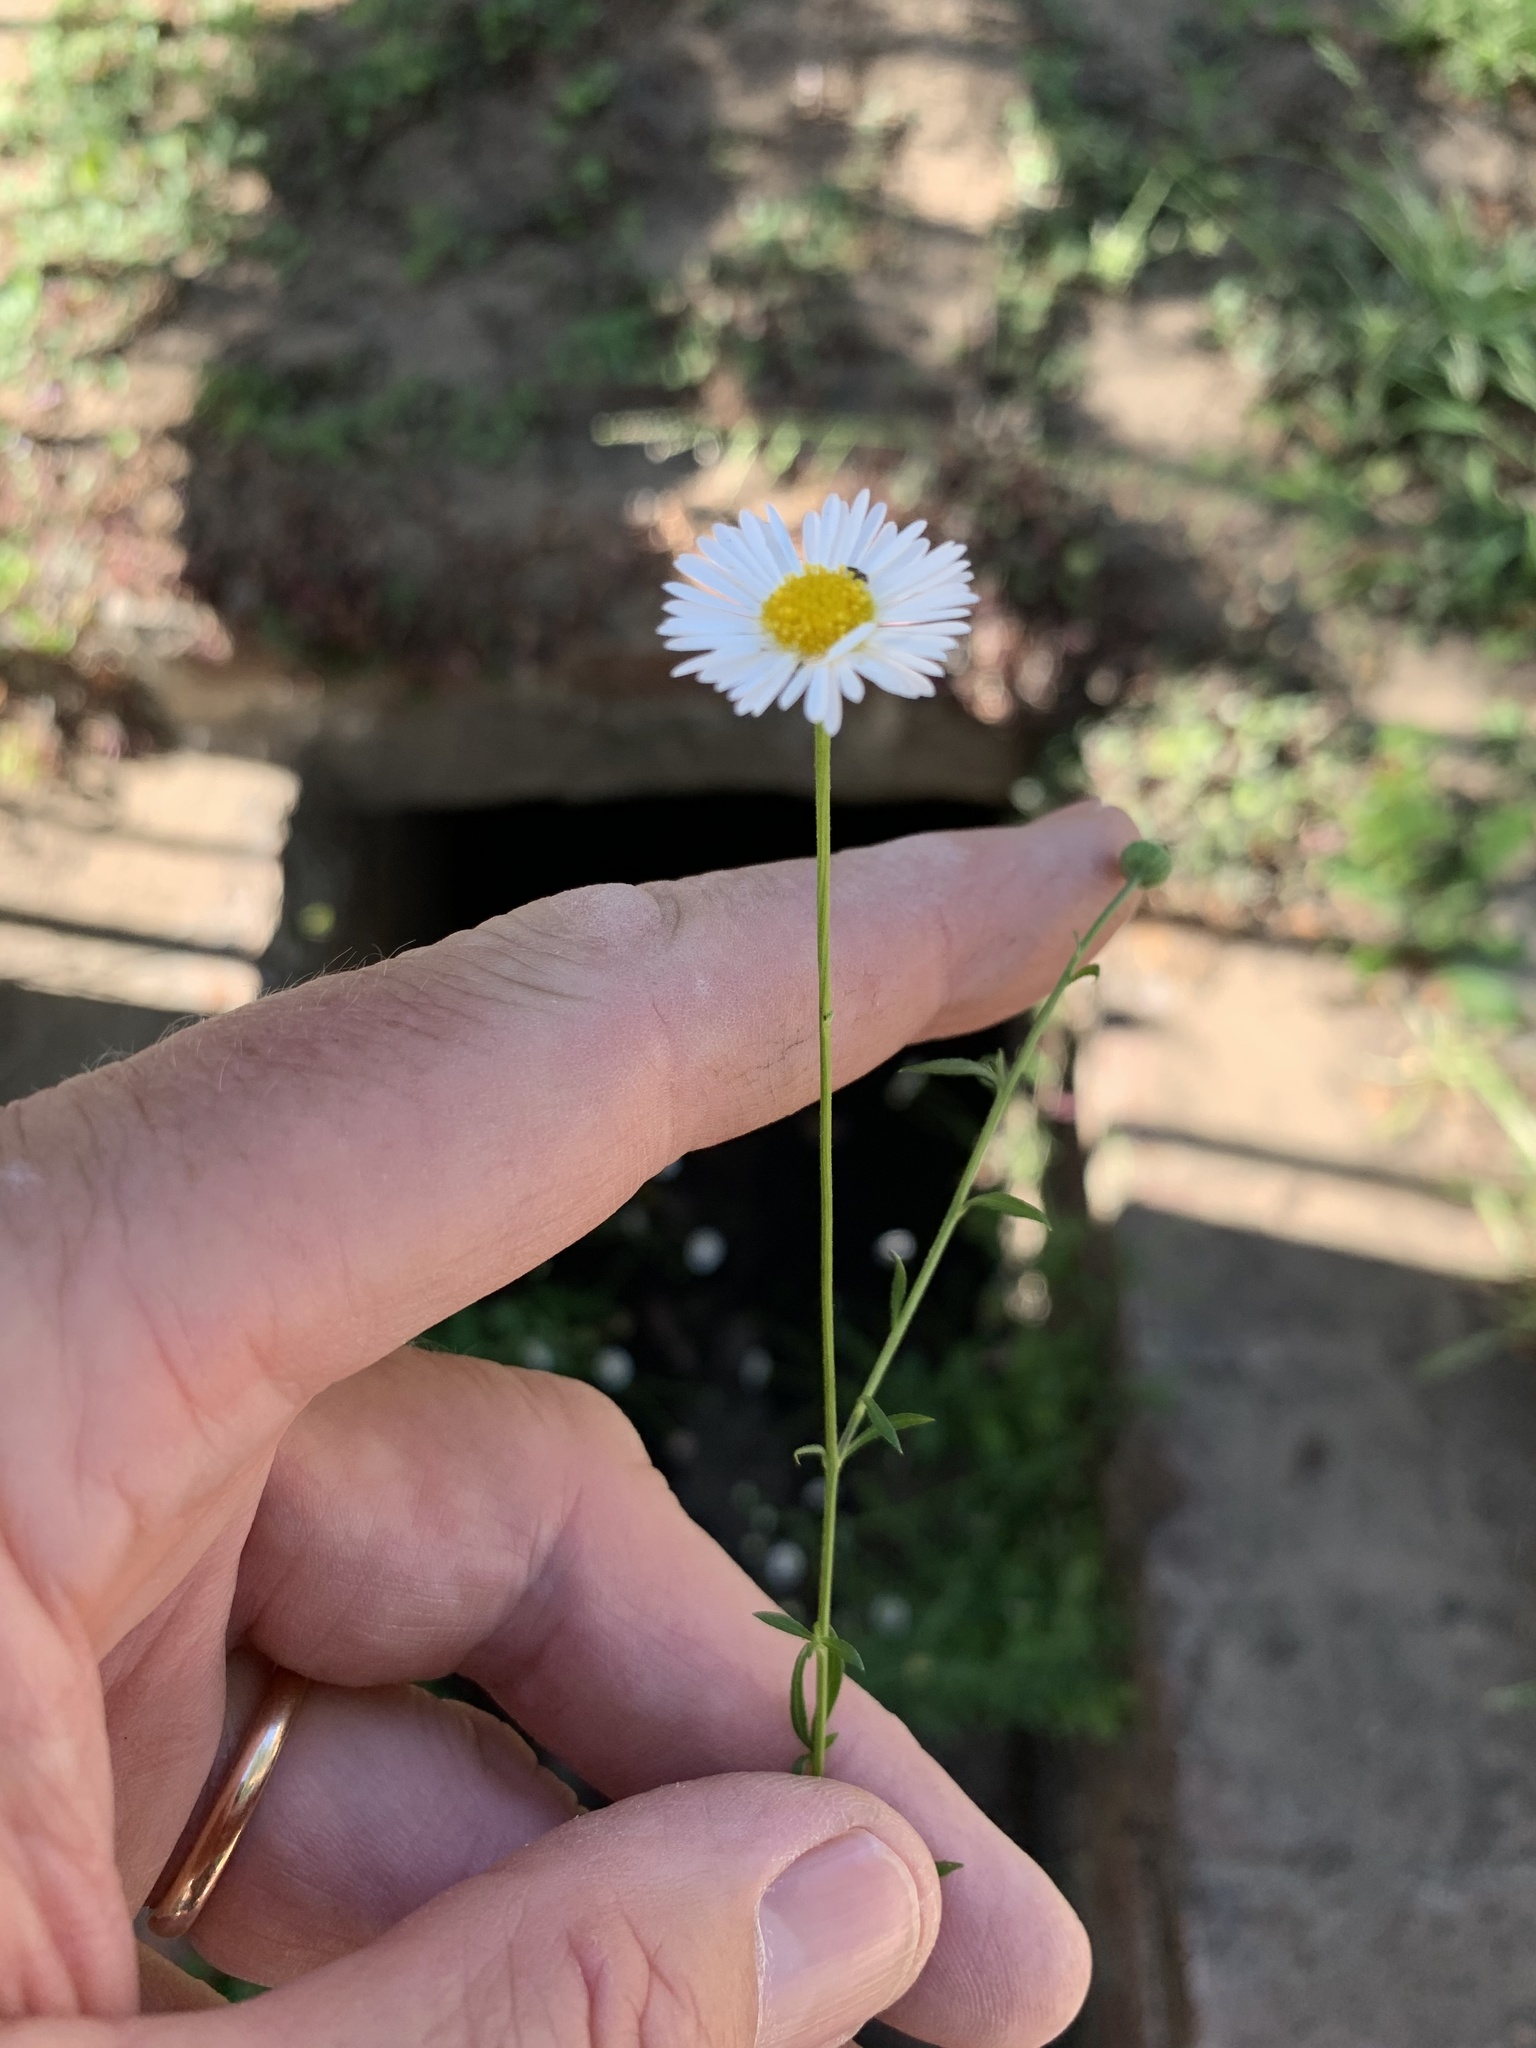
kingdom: Plantae
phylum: Tracheophyta
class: Magnoliopsida
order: Asterales
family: Asteraceae
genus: Erigeron
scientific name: Erigeron karvinskianus
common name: Mexican fleabane
